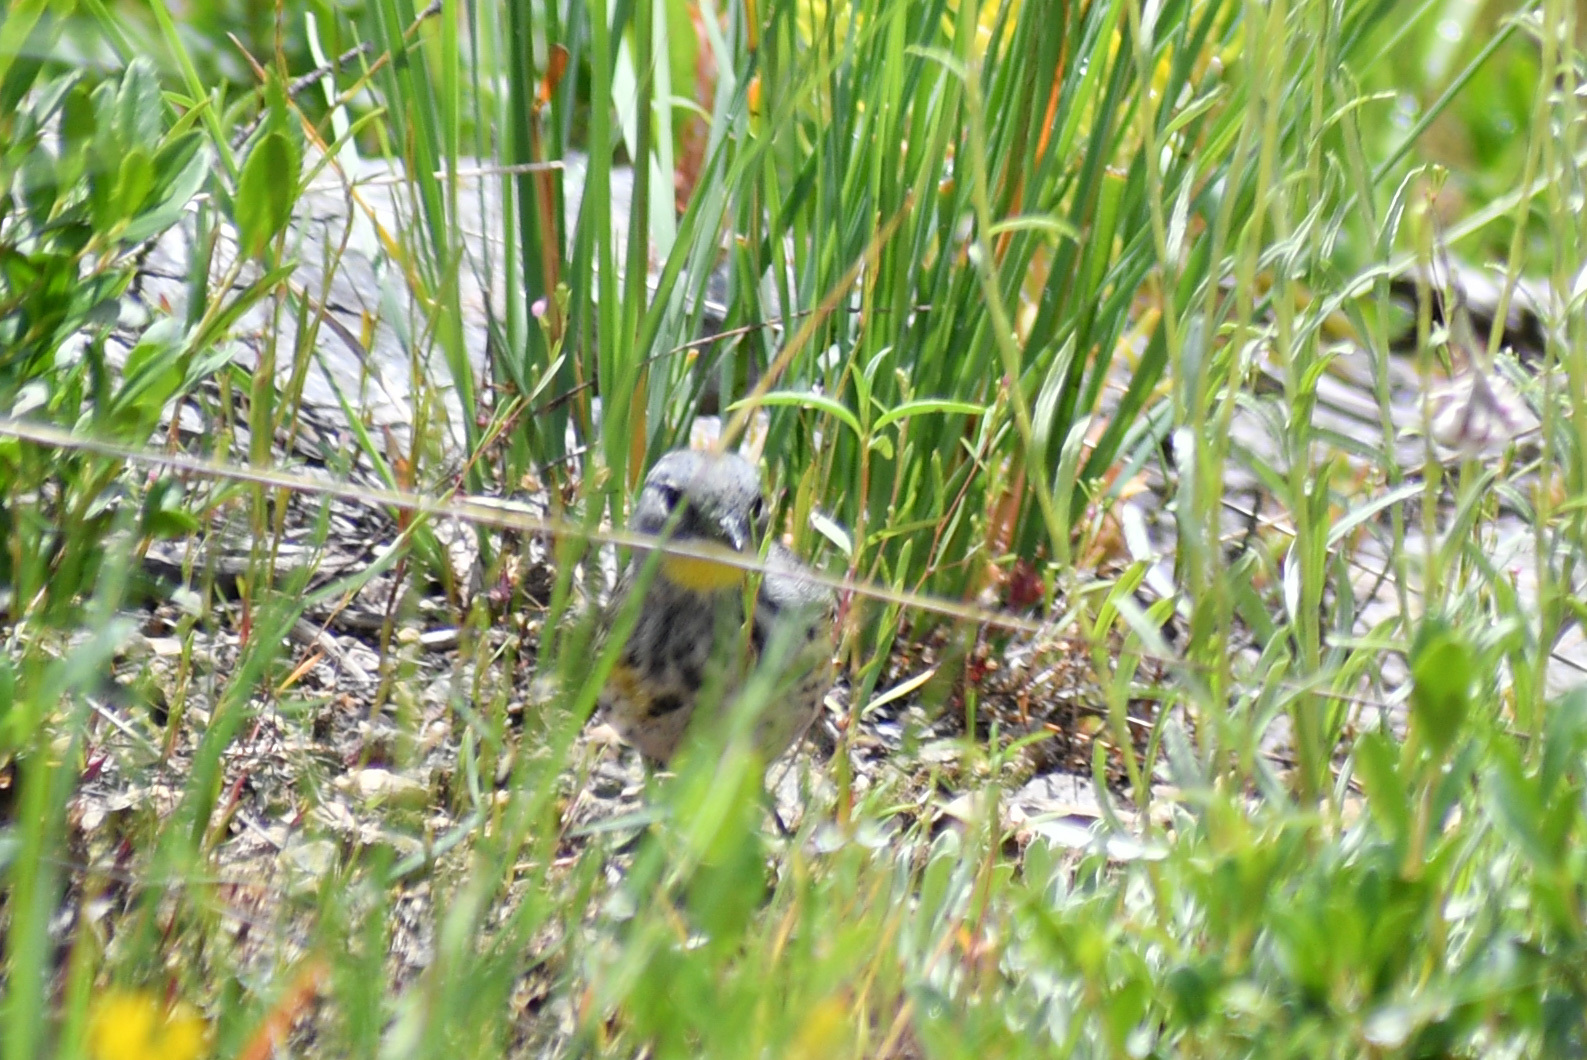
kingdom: Animalia
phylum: Chordata
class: Aves
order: Passeriformes
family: Parulidae
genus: Setophaga
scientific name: Setophaga auduboni
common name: Audubon's warbler
